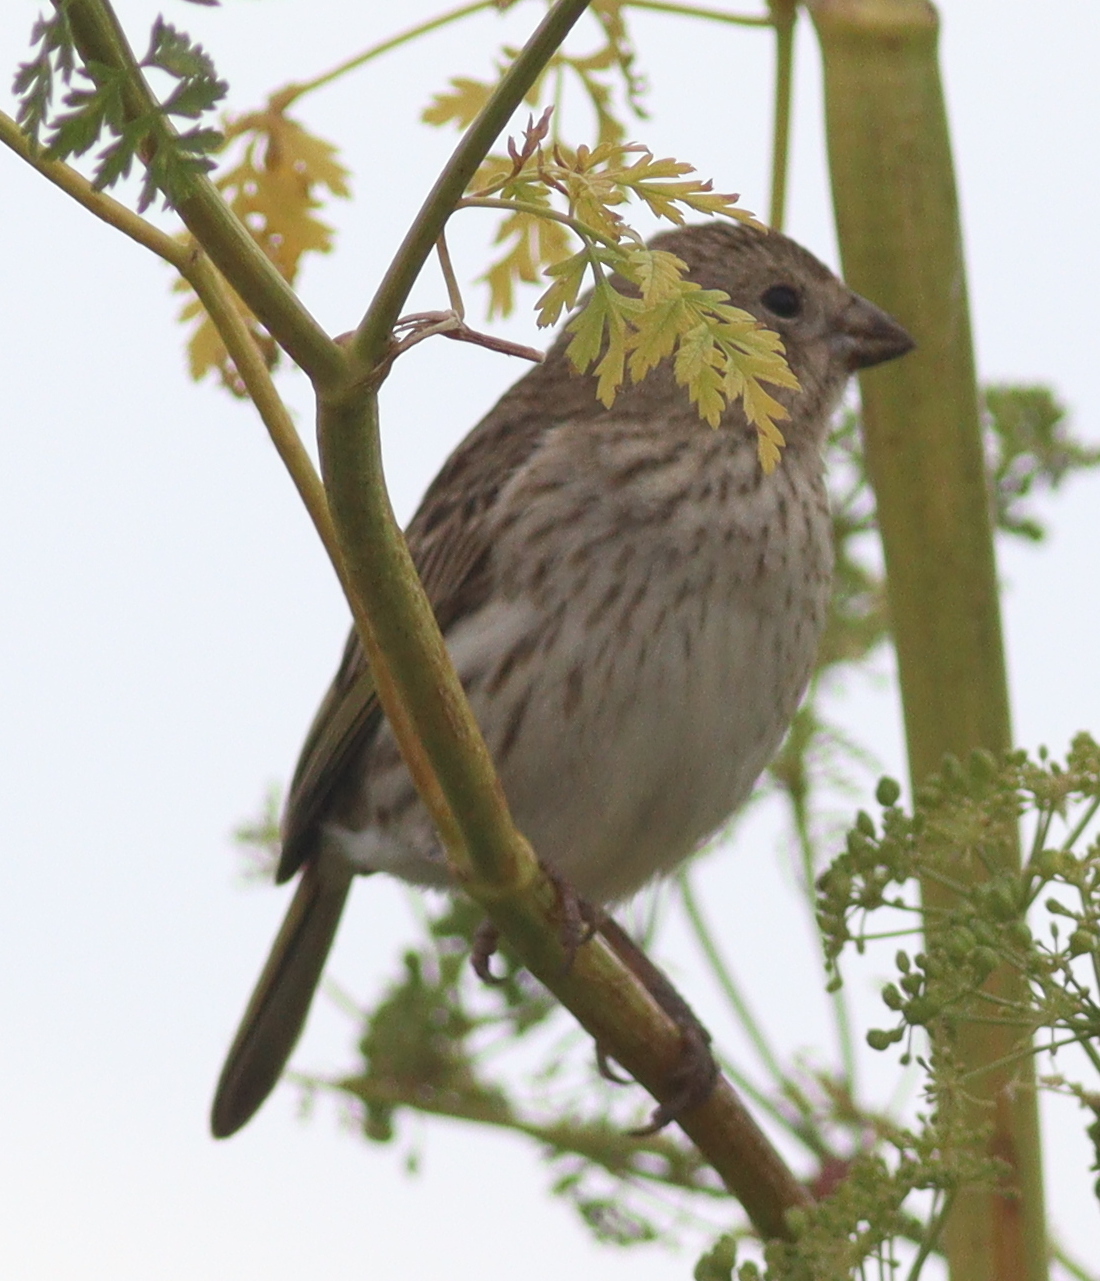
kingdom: Animalia
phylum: Chordata
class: Aves
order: Passeriformes
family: Thraupidae
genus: Sicalis
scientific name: Sicalis flaveola
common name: Saffron finch
